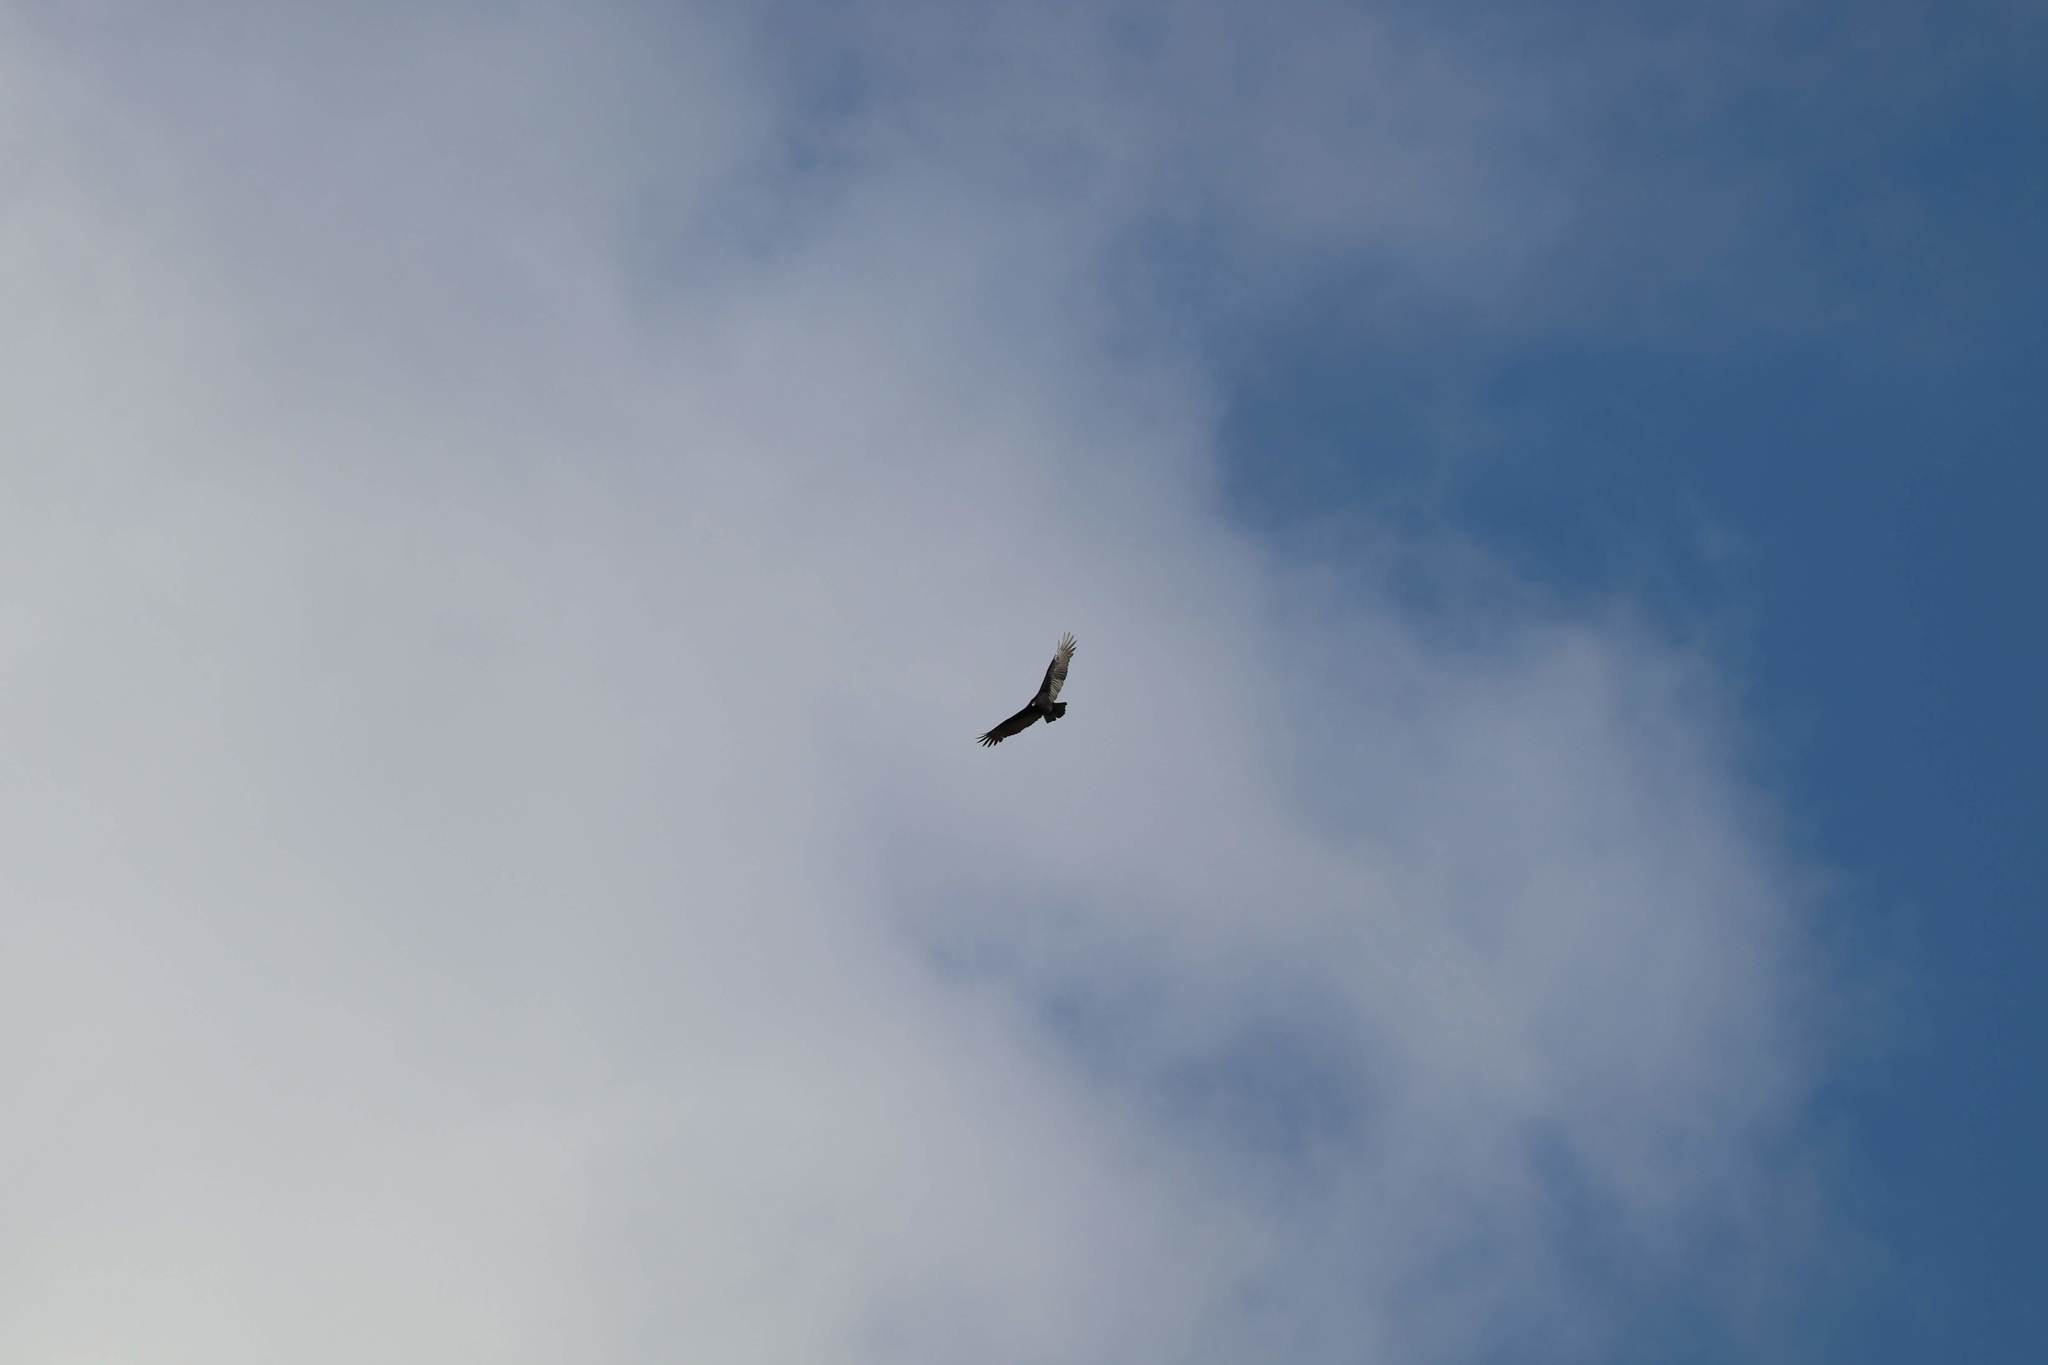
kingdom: Animalia
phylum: Chordata
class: Aves
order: Accipitriformes
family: Cathartidae
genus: Cathartes
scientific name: Cathartes aura
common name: Turkey vulture
